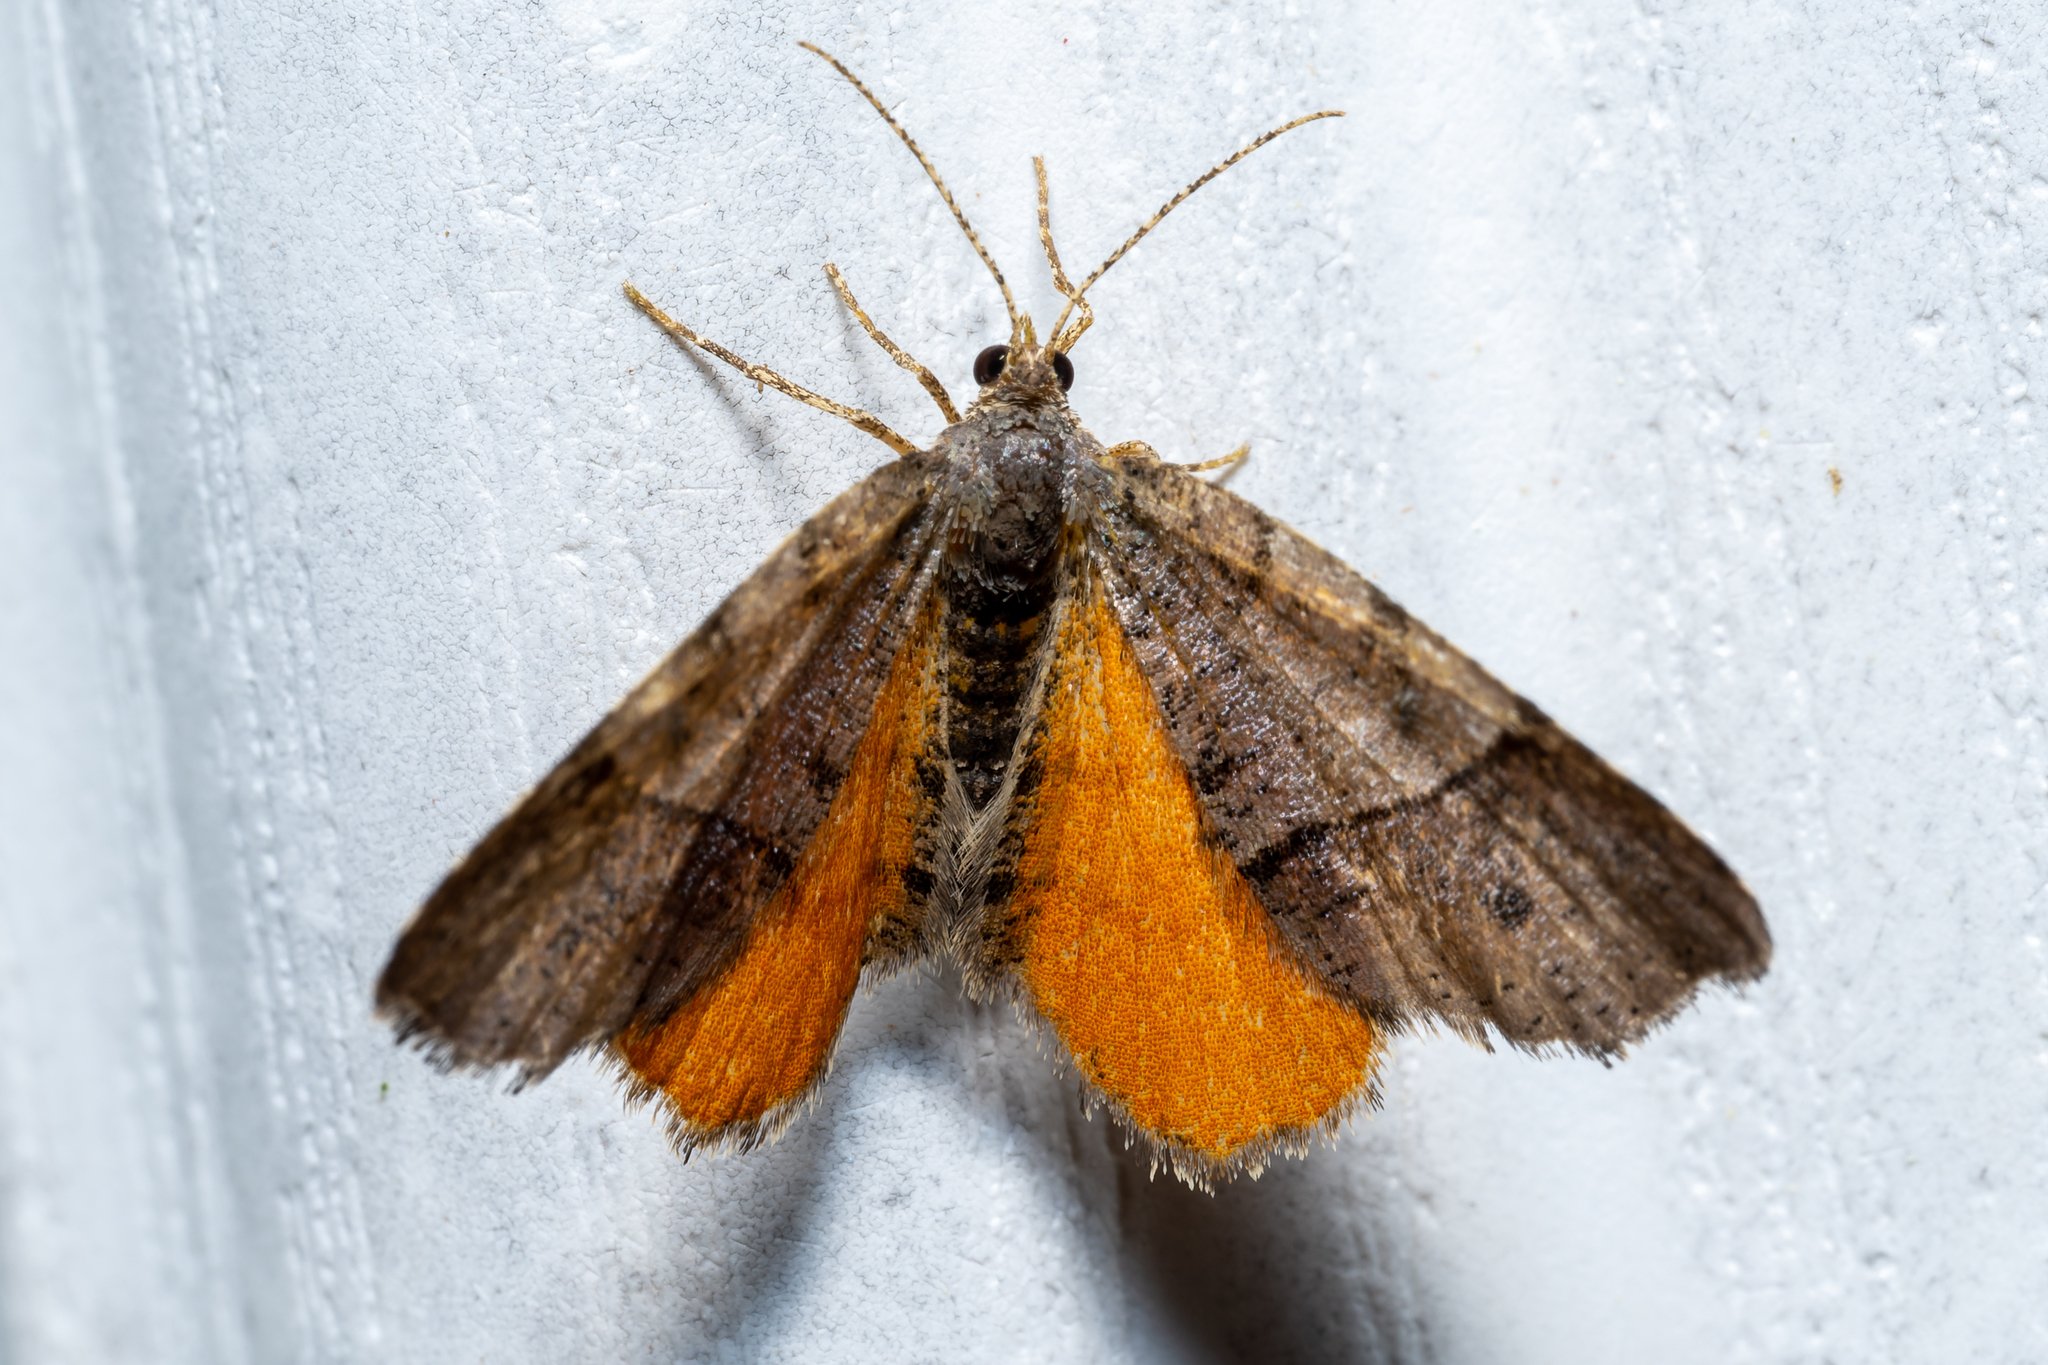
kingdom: Animalia
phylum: Arthropoda
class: Insecta
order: Lepidoptera
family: Geometridae
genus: Mellilla
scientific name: Mellilla xanthometata
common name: Orange wing moth
